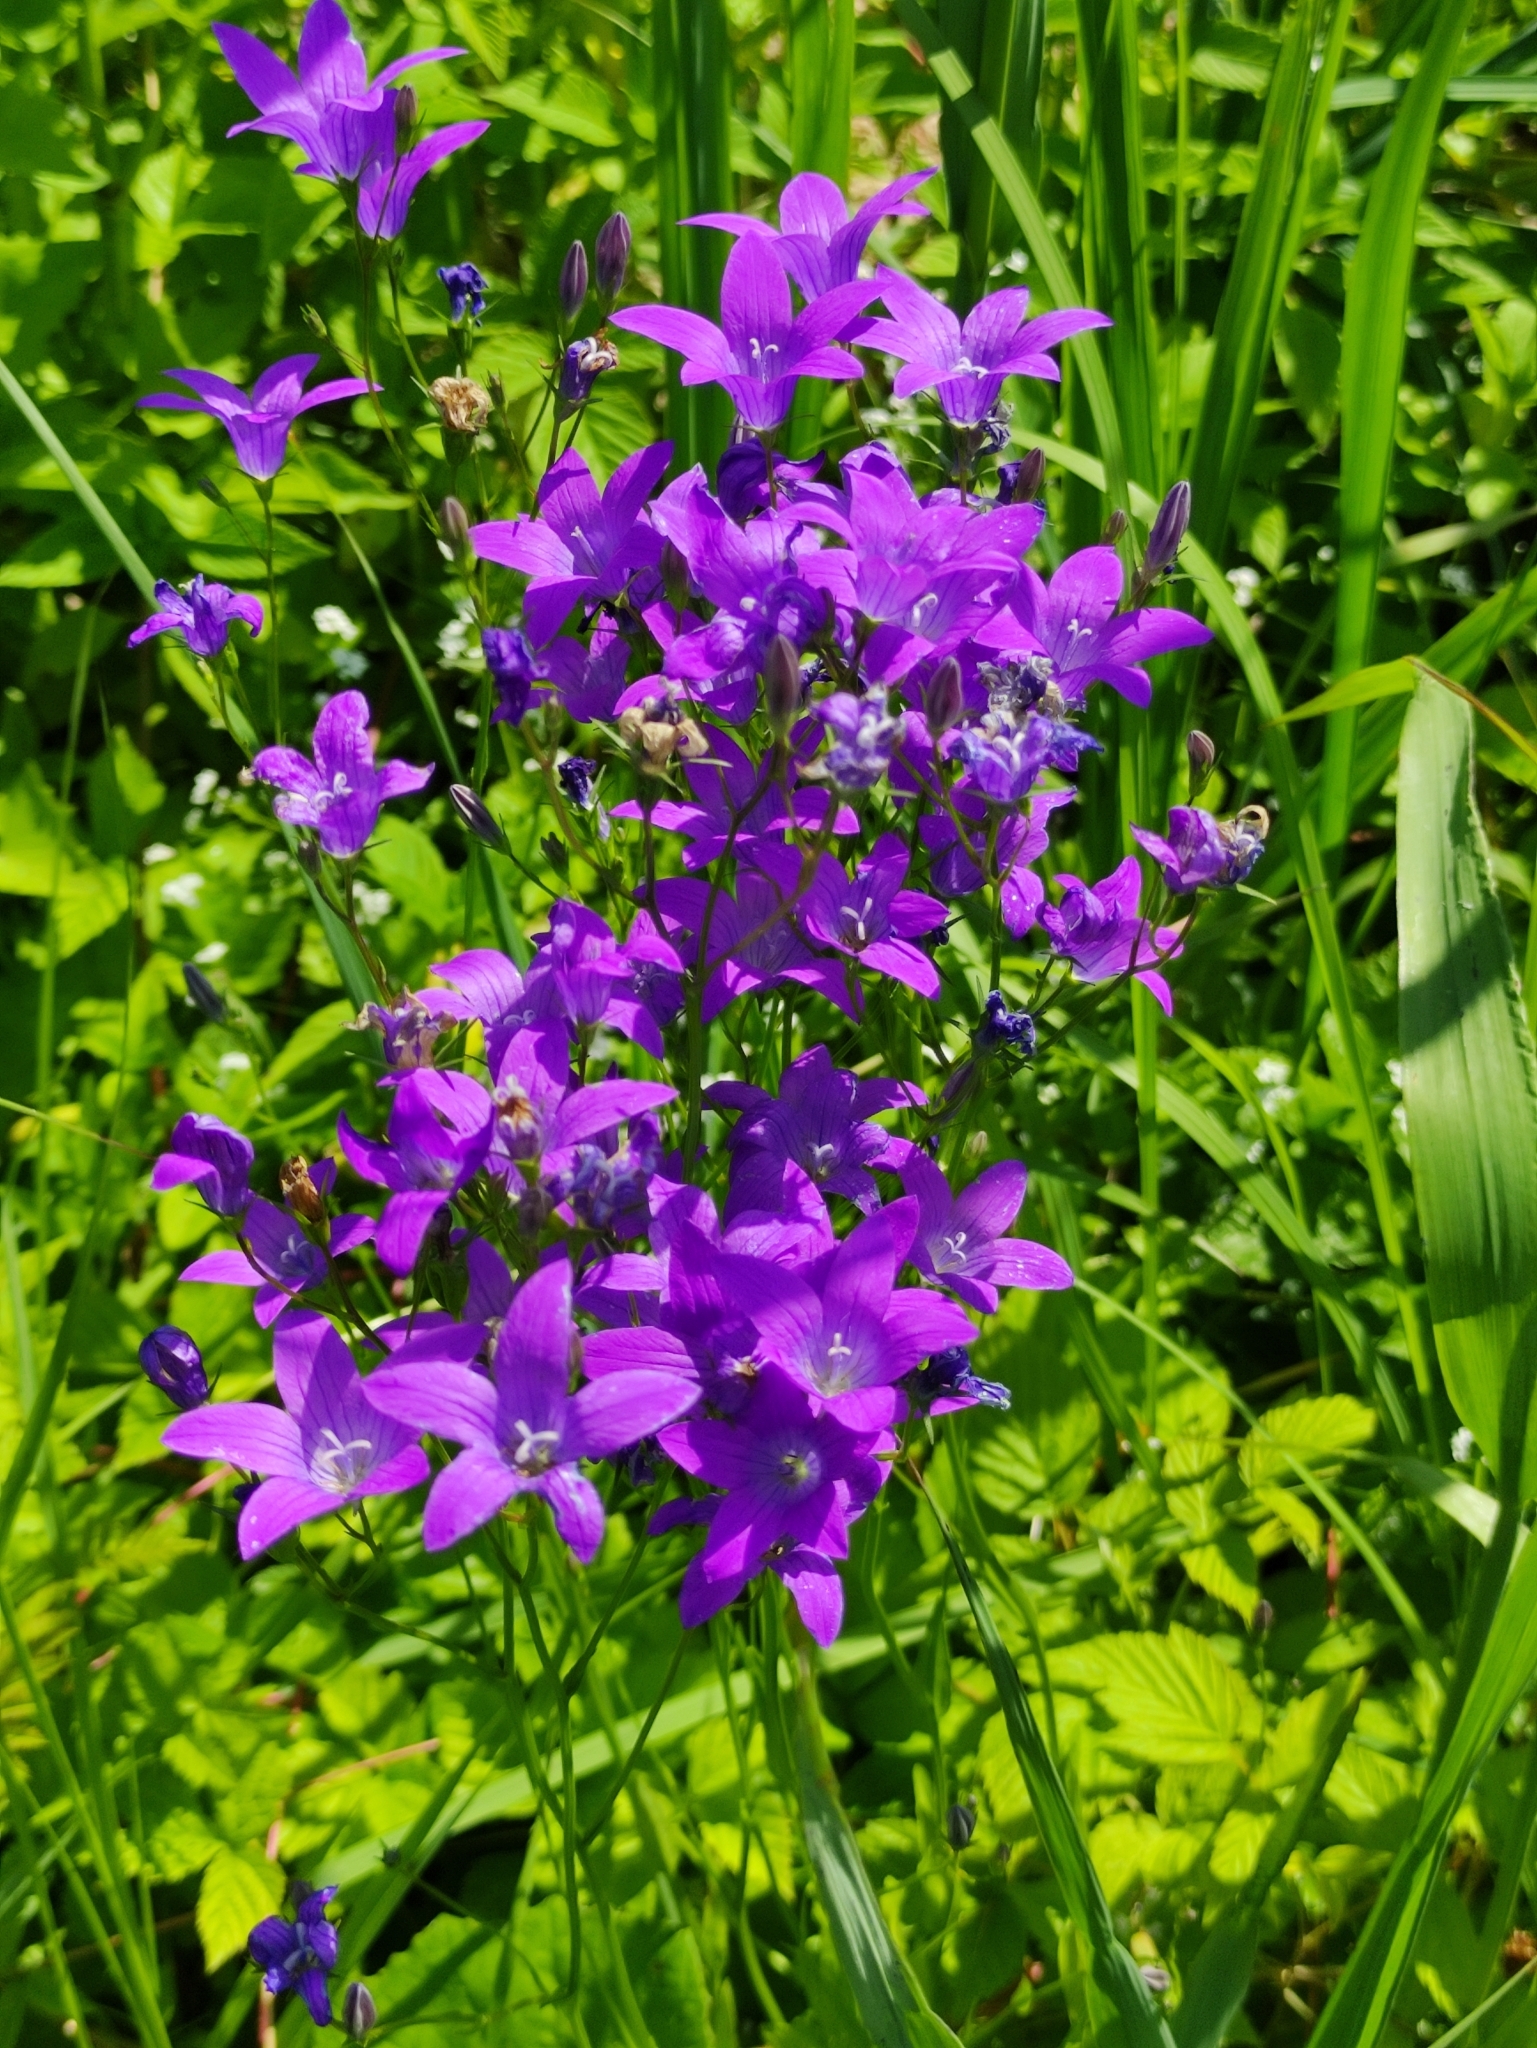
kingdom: Plantae
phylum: Tracheophyta
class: Magnoliopsida
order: Asterales
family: Campanulaceae
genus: Campanula
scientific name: Campanula patula
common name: Spreading bellflower
